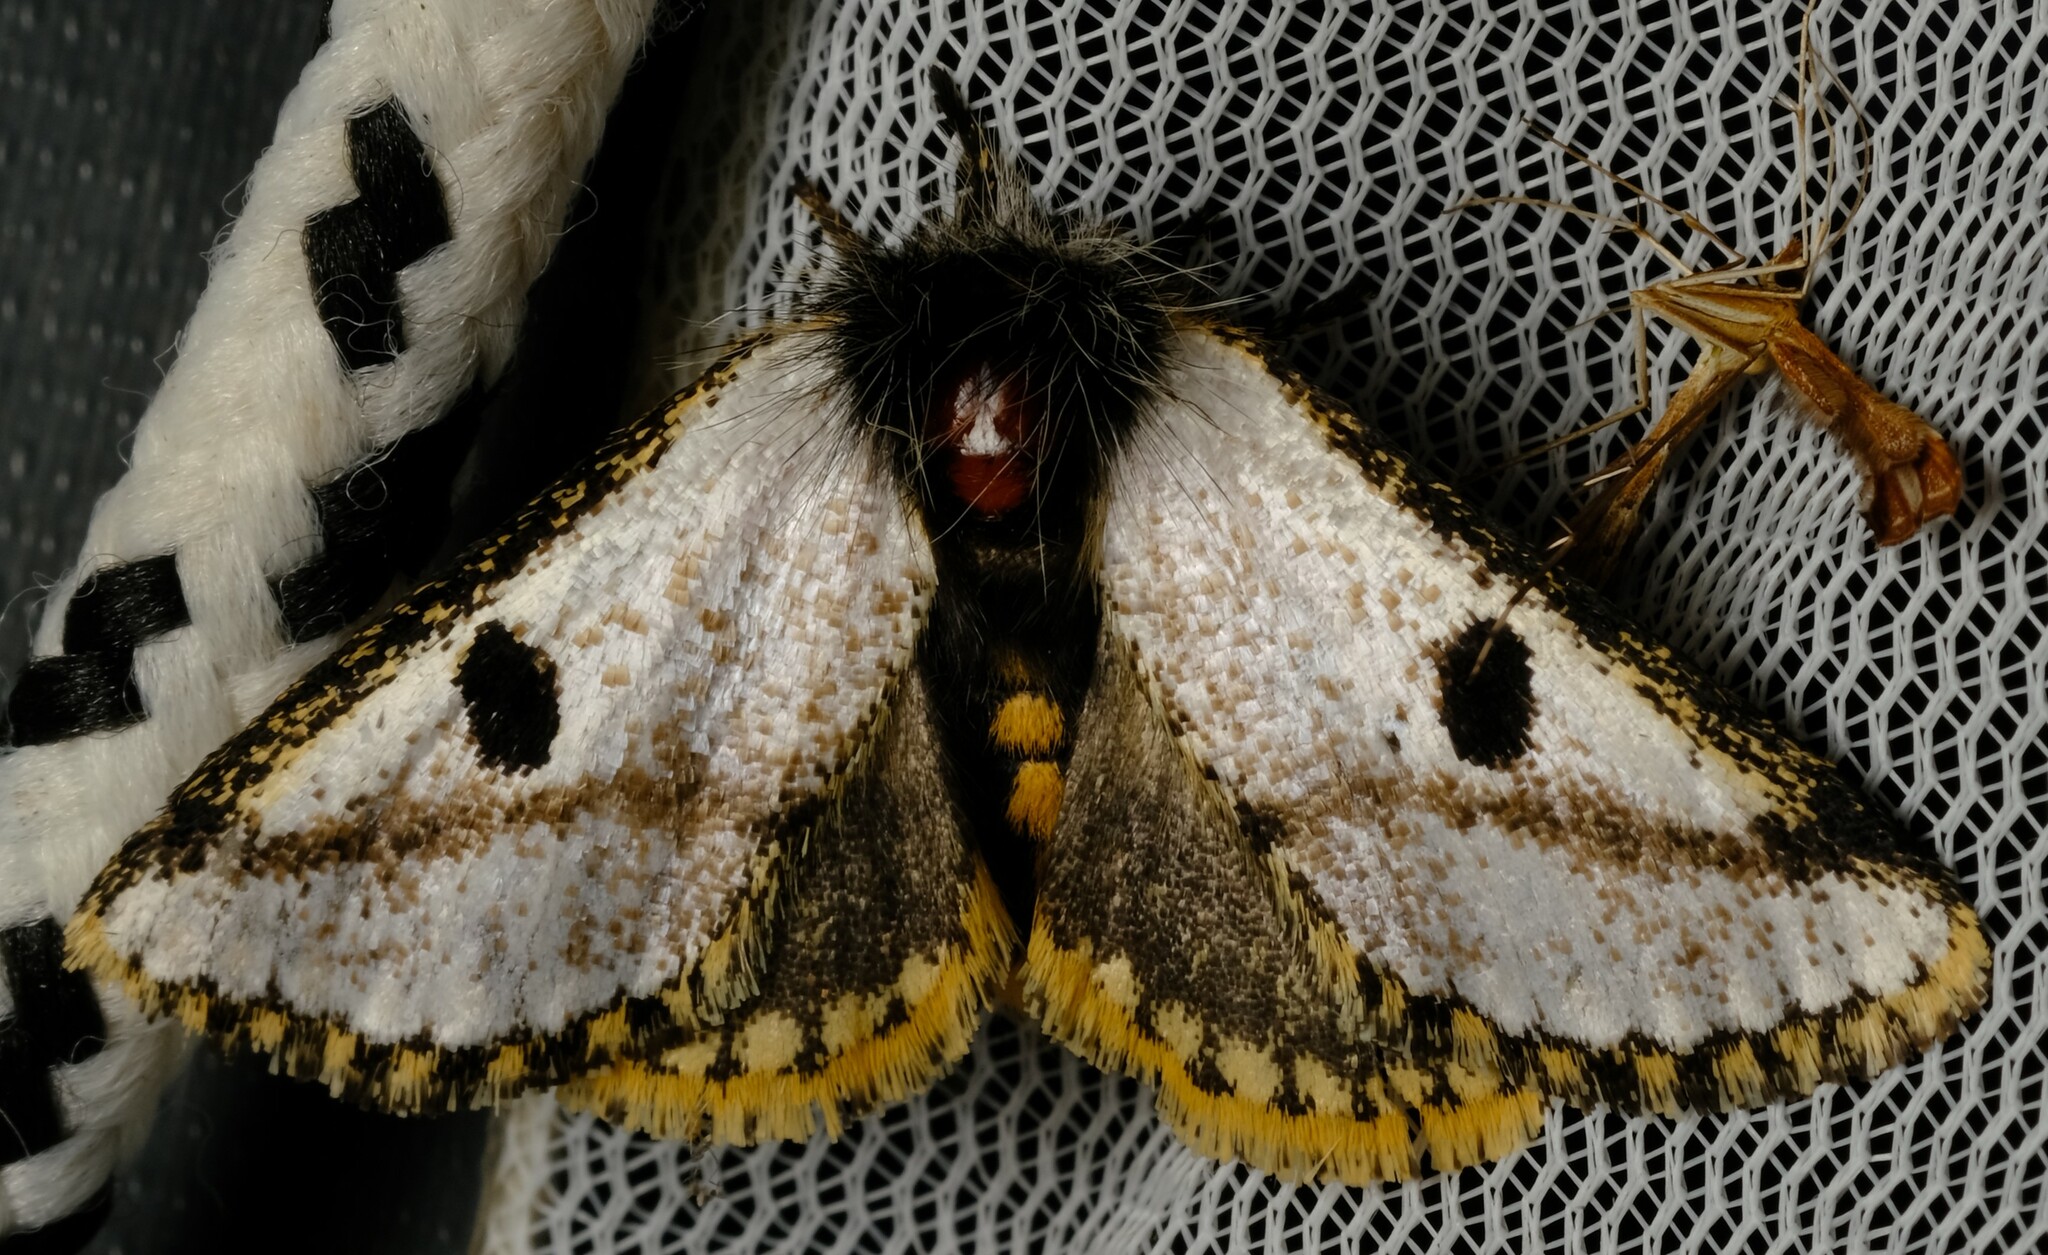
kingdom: Animalia
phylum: Arthropoda
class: Insecta
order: Lepidoptera
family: Notodontidae
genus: Epicoma
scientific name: Epicoma melanospila
